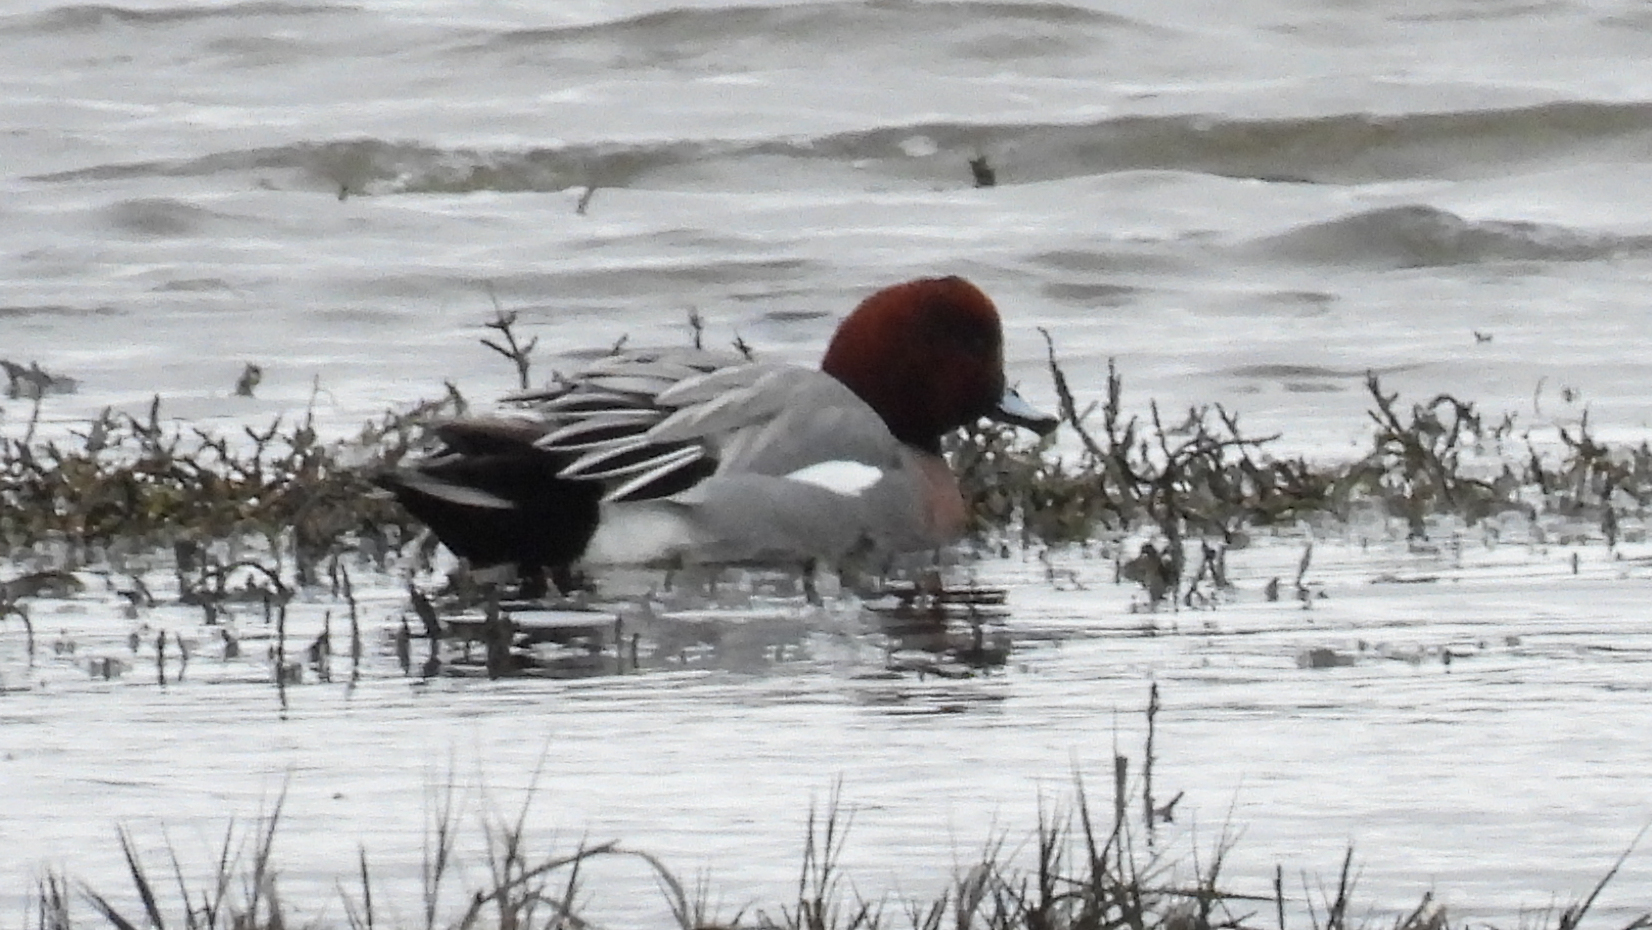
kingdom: Animalia
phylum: Chordata
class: Aves
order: Anseriformes
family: Anatidae
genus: Mareca
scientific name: Mareca penelope
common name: Eurasian wigeon
